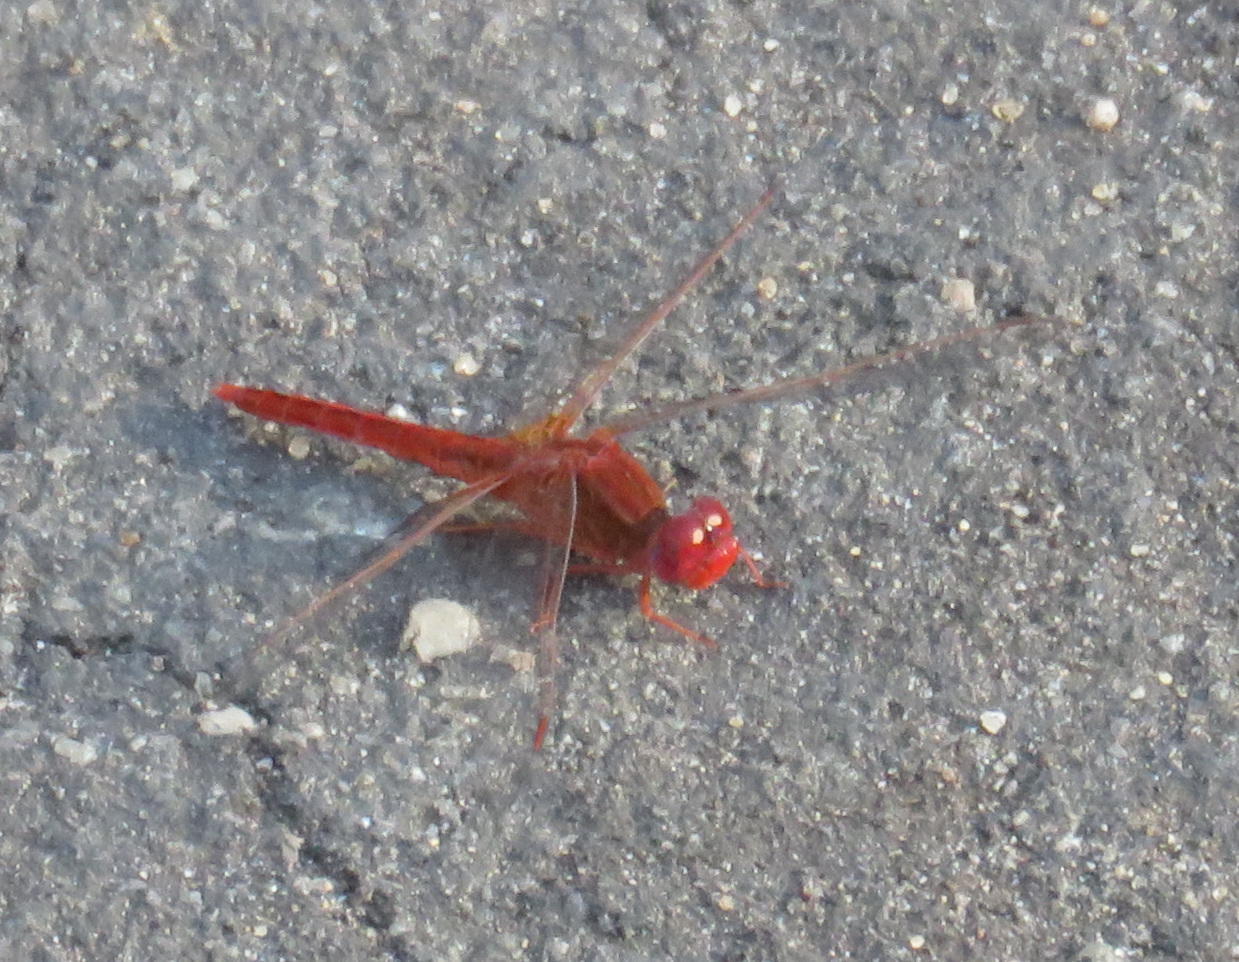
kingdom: Animalia
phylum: Arthropoda
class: Insecta
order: Odonata
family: Libellulidae
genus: Crocothemis
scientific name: Crocothemis sanguinolenta
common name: Little scarlet
